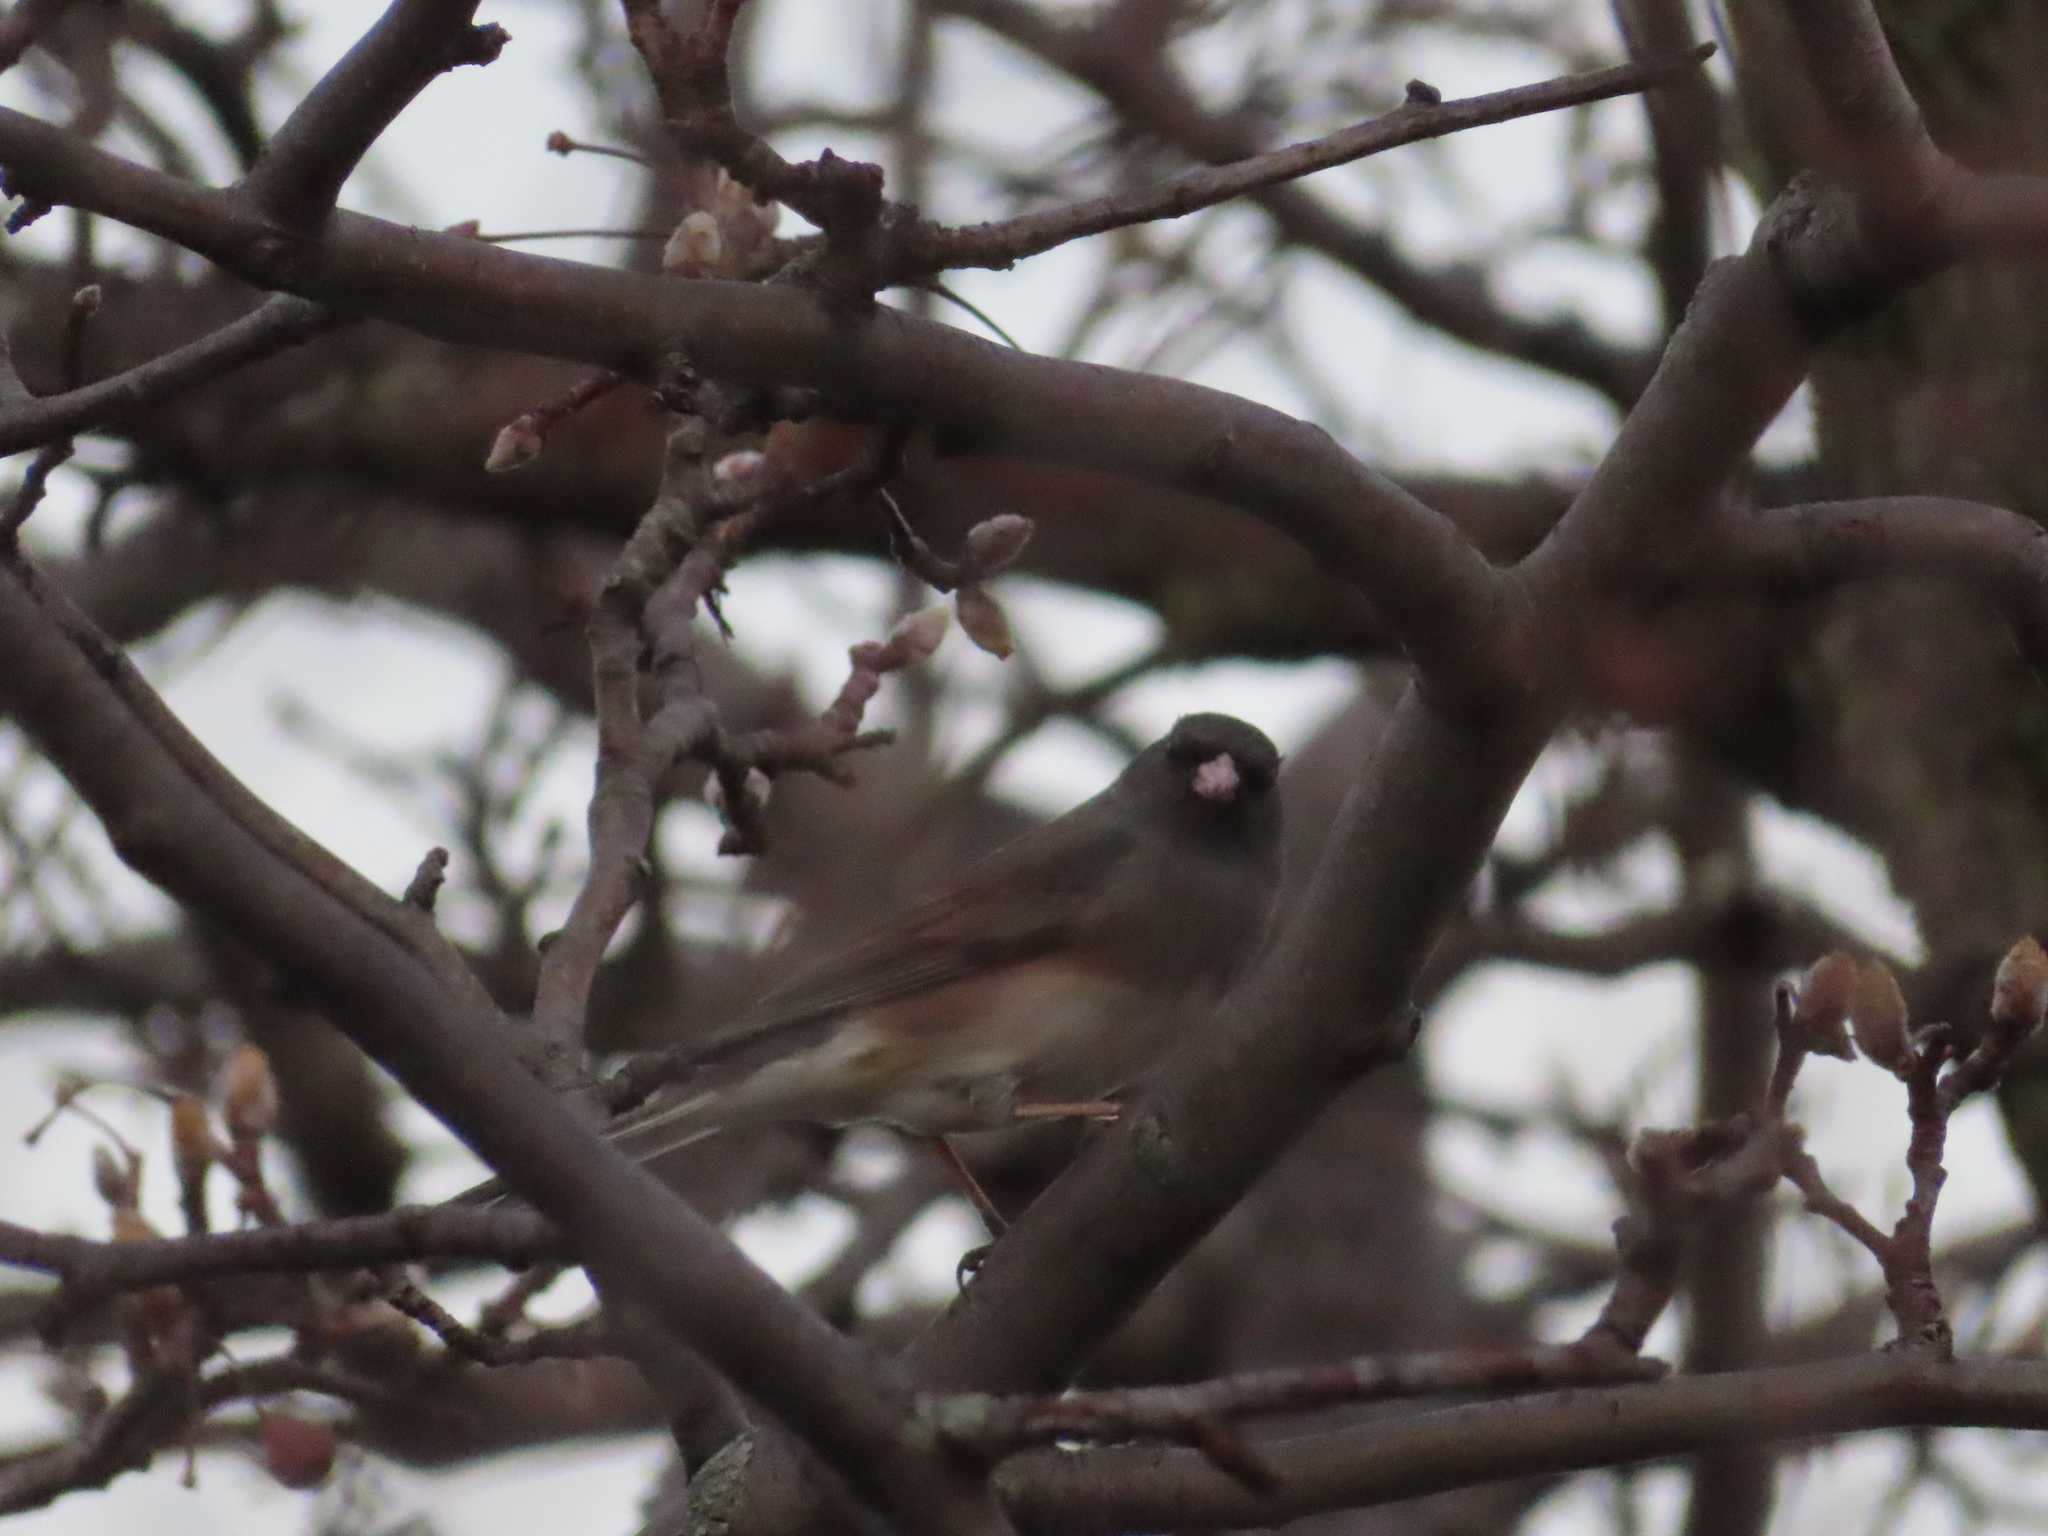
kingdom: Animalia
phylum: Chordata
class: Aves
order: Passeriformes
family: Passerellidae
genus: Junco
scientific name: Junco hyemalis
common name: Dark-eyed junco
